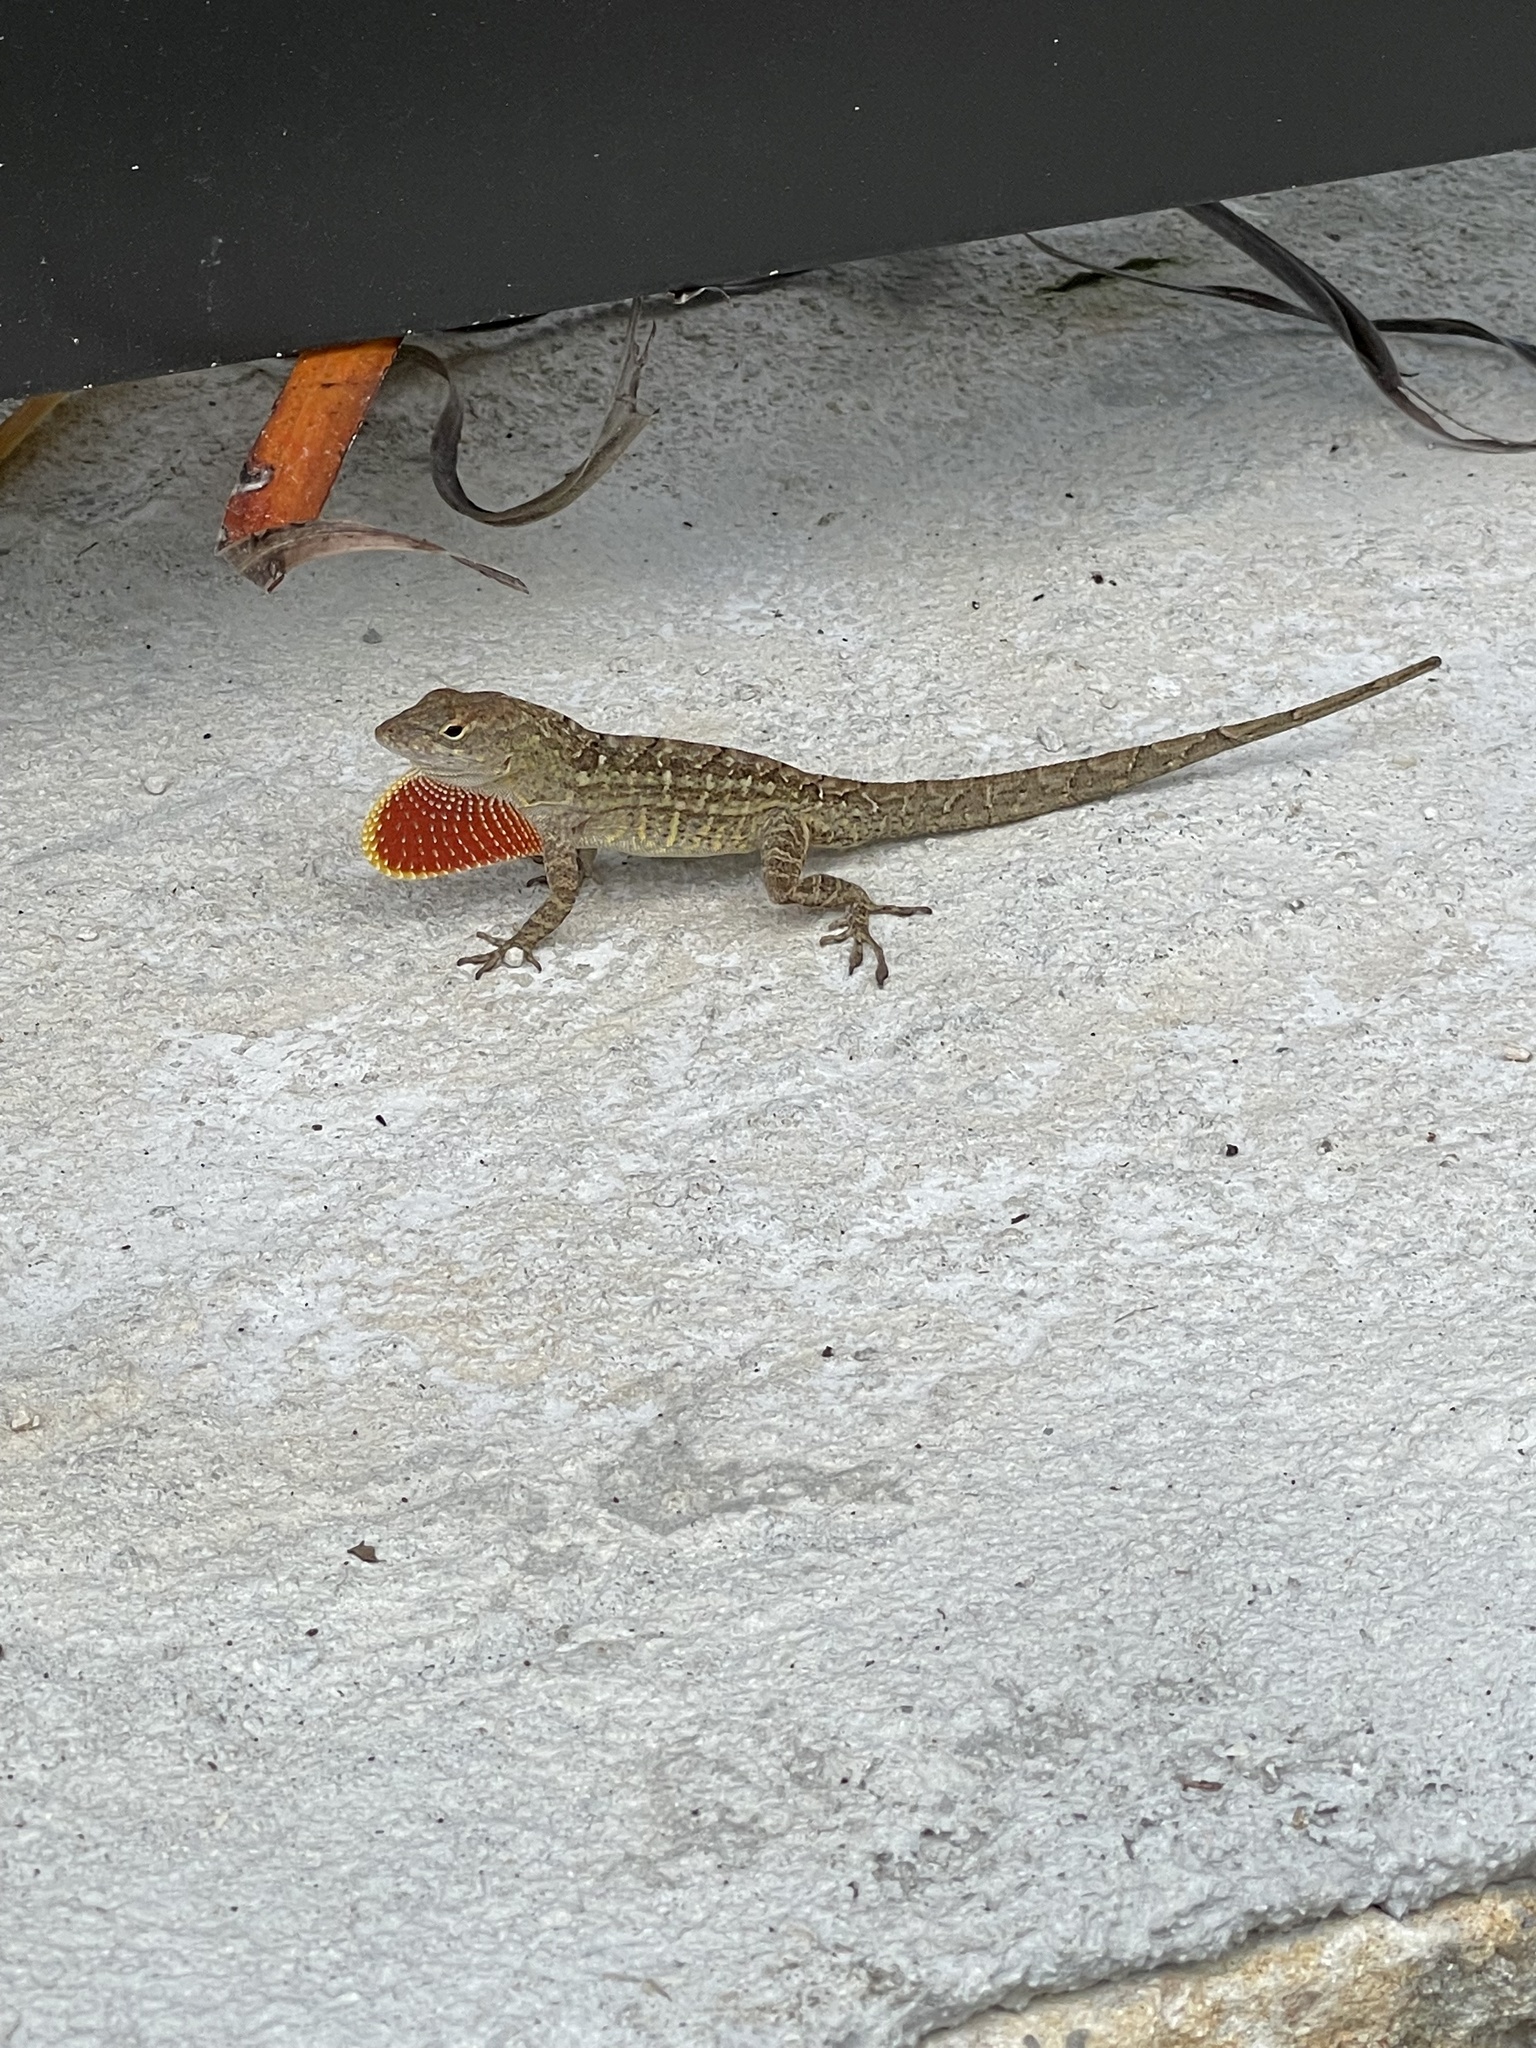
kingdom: Animalia
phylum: Chordata
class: Squamata
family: Dactyloidae
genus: Anolis
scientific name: Anolis sagrei
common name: Brown anole
